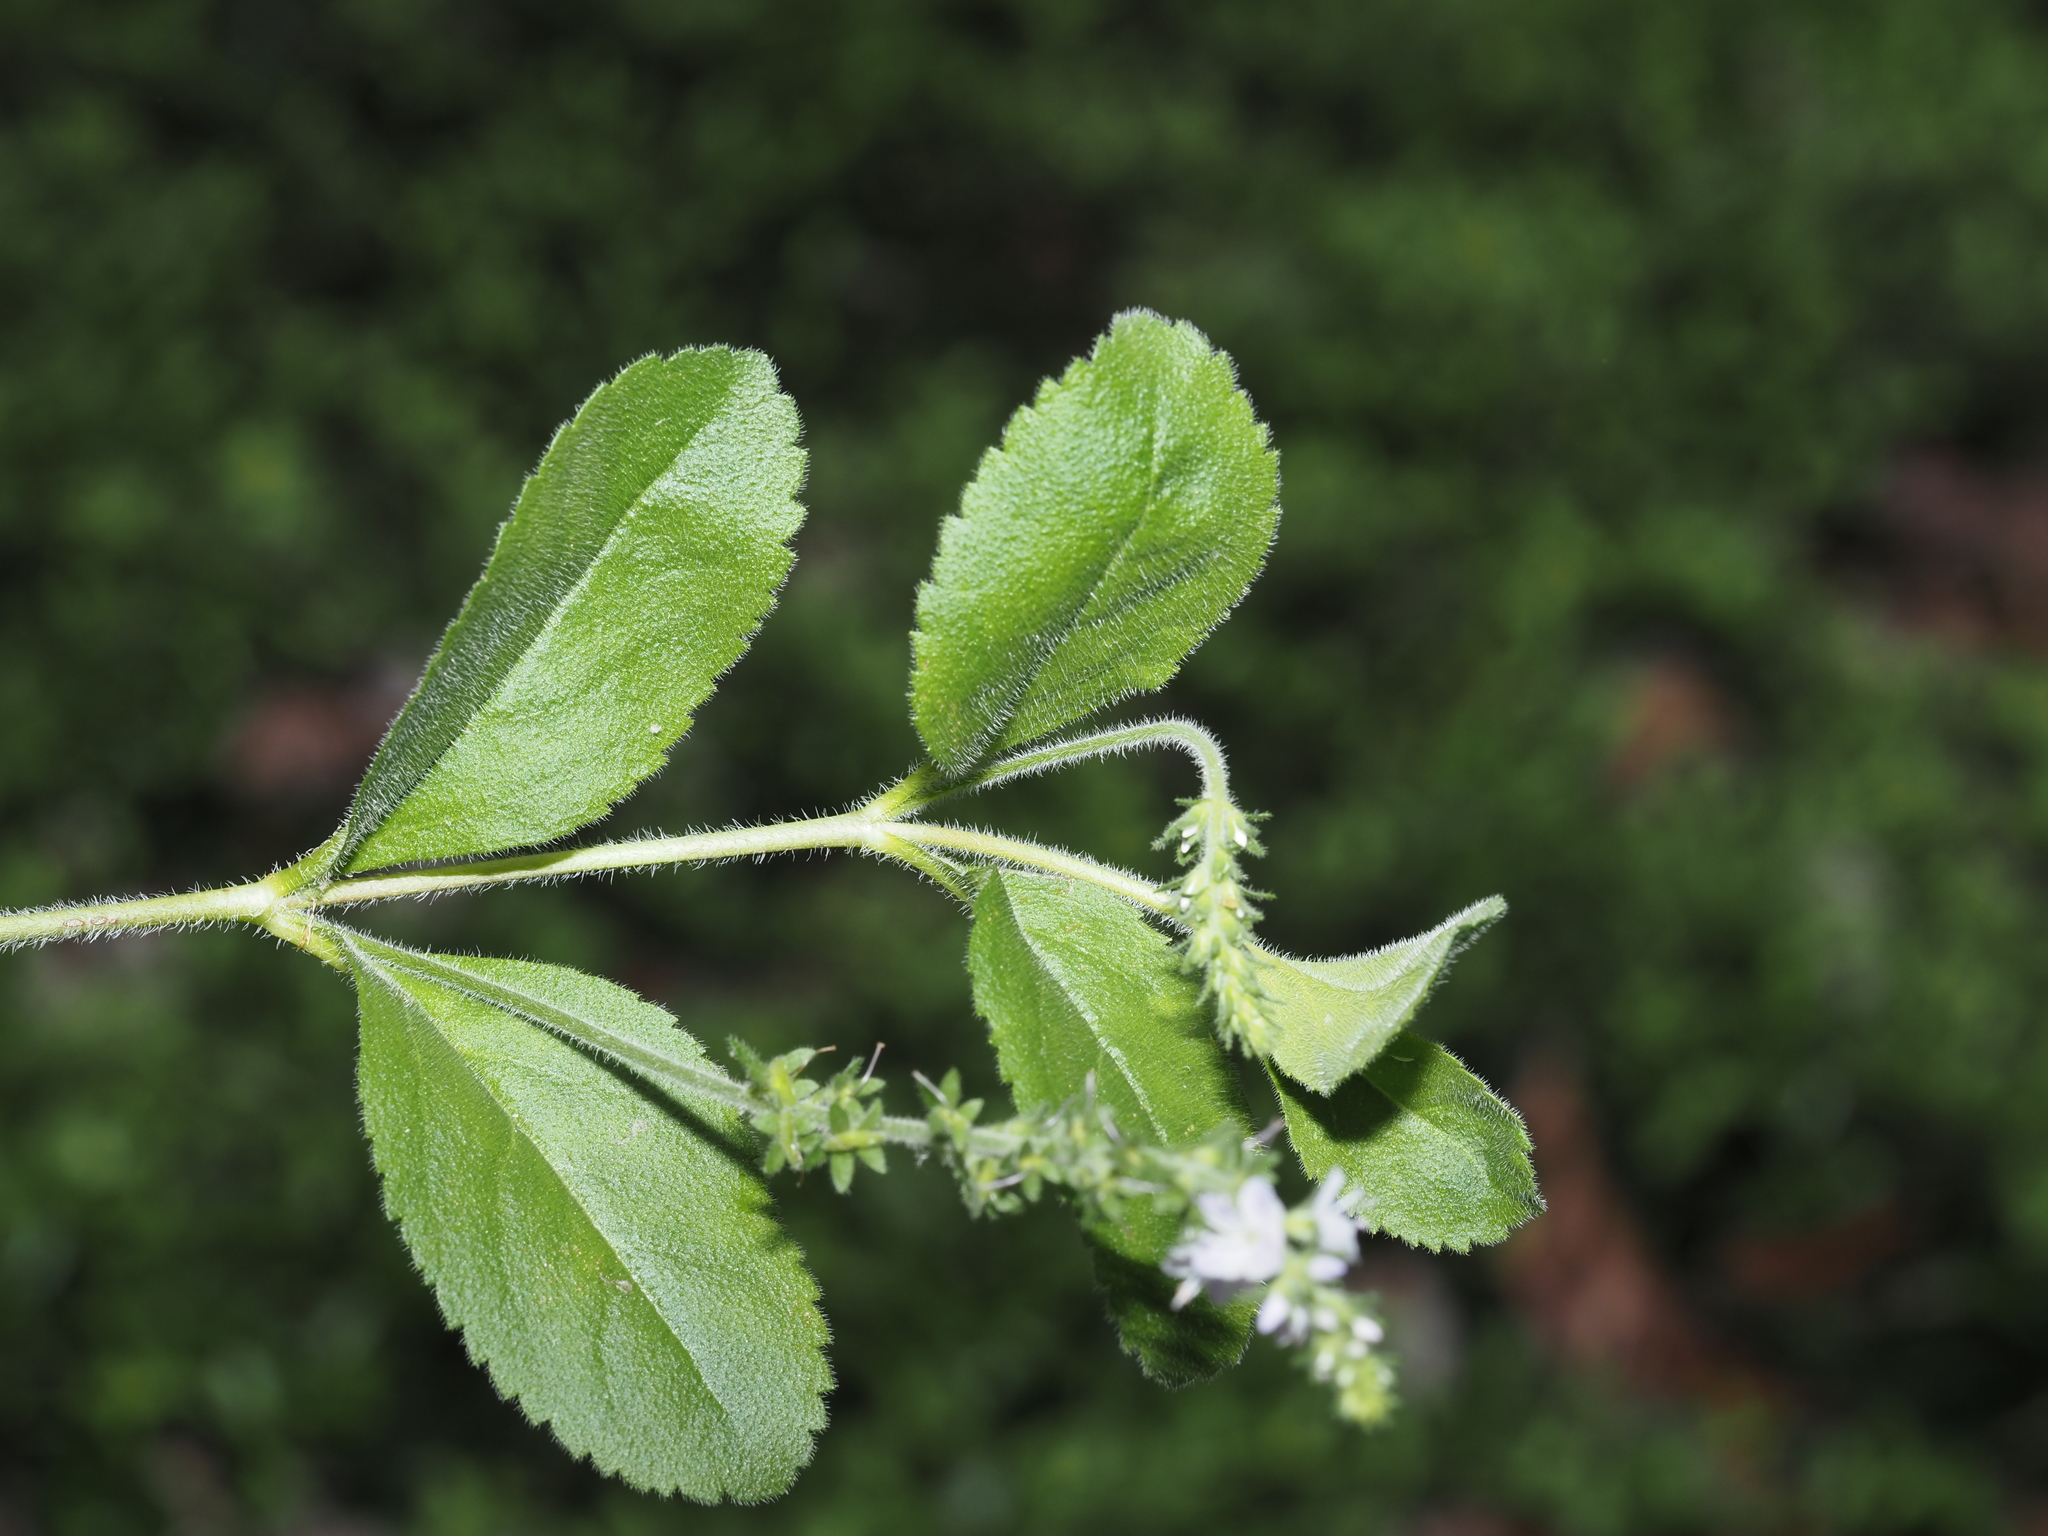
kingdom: Plantae
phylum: Tracheophyta
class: Magnoliopsida
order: Lamiales
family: Plantaginaceae
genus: Veronica
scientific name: Veronica officinalis
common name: Common speedwell
